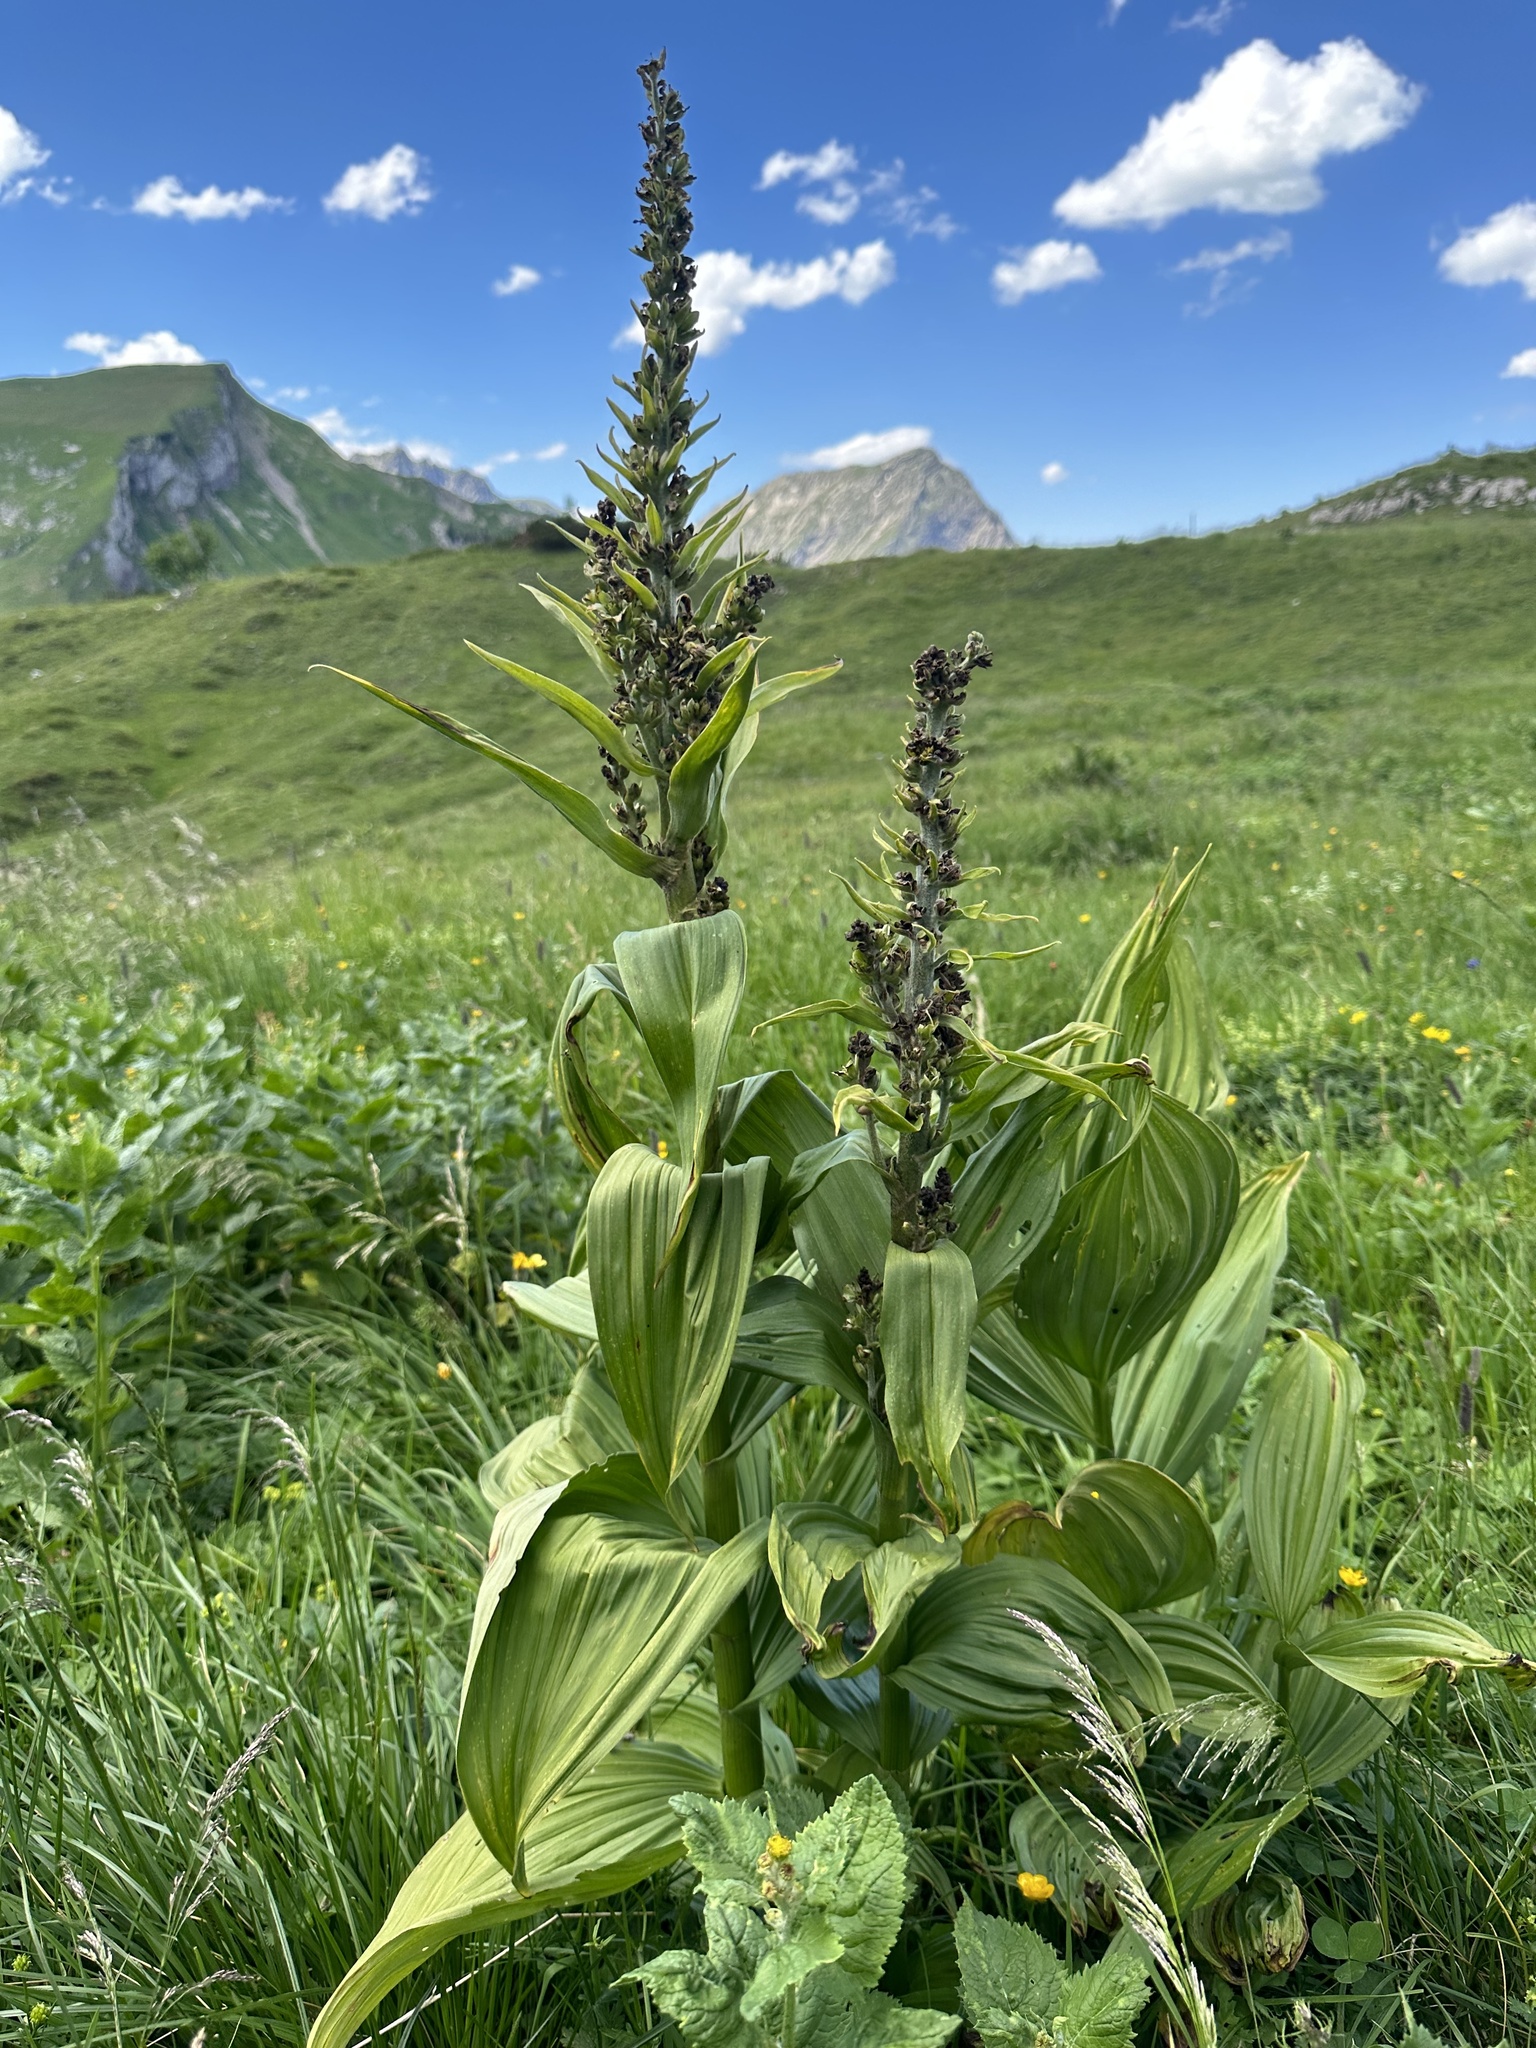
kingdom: Plantae
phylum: Tracheophyta
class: Liliopsida
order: Liliales
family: Melanthiaceae
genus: Veratrum
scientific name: Veratrum album
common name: White veratrum
